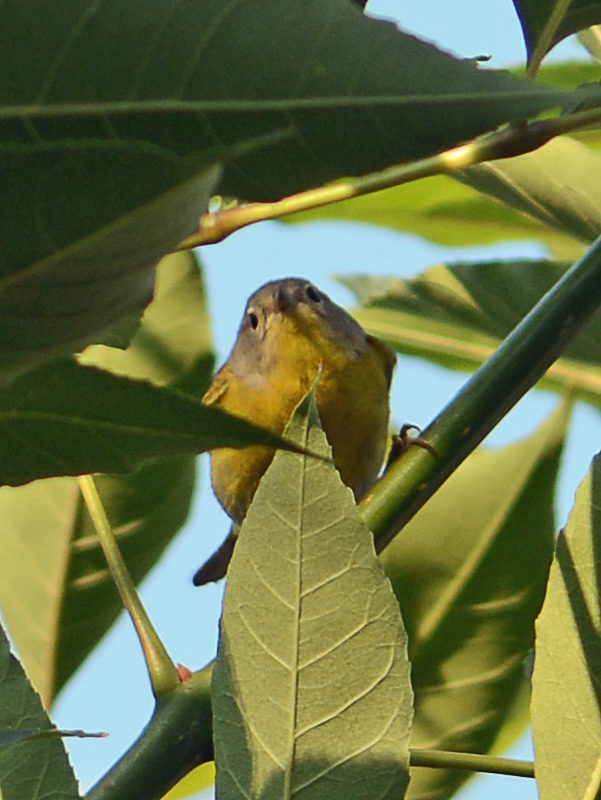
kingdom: Animalia
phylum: Chordata
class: Aves
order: Passeriformes
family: Parulidae
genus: Leiothlypis
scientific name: Leiothlypis ruficapilla
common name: Nashville warbler
